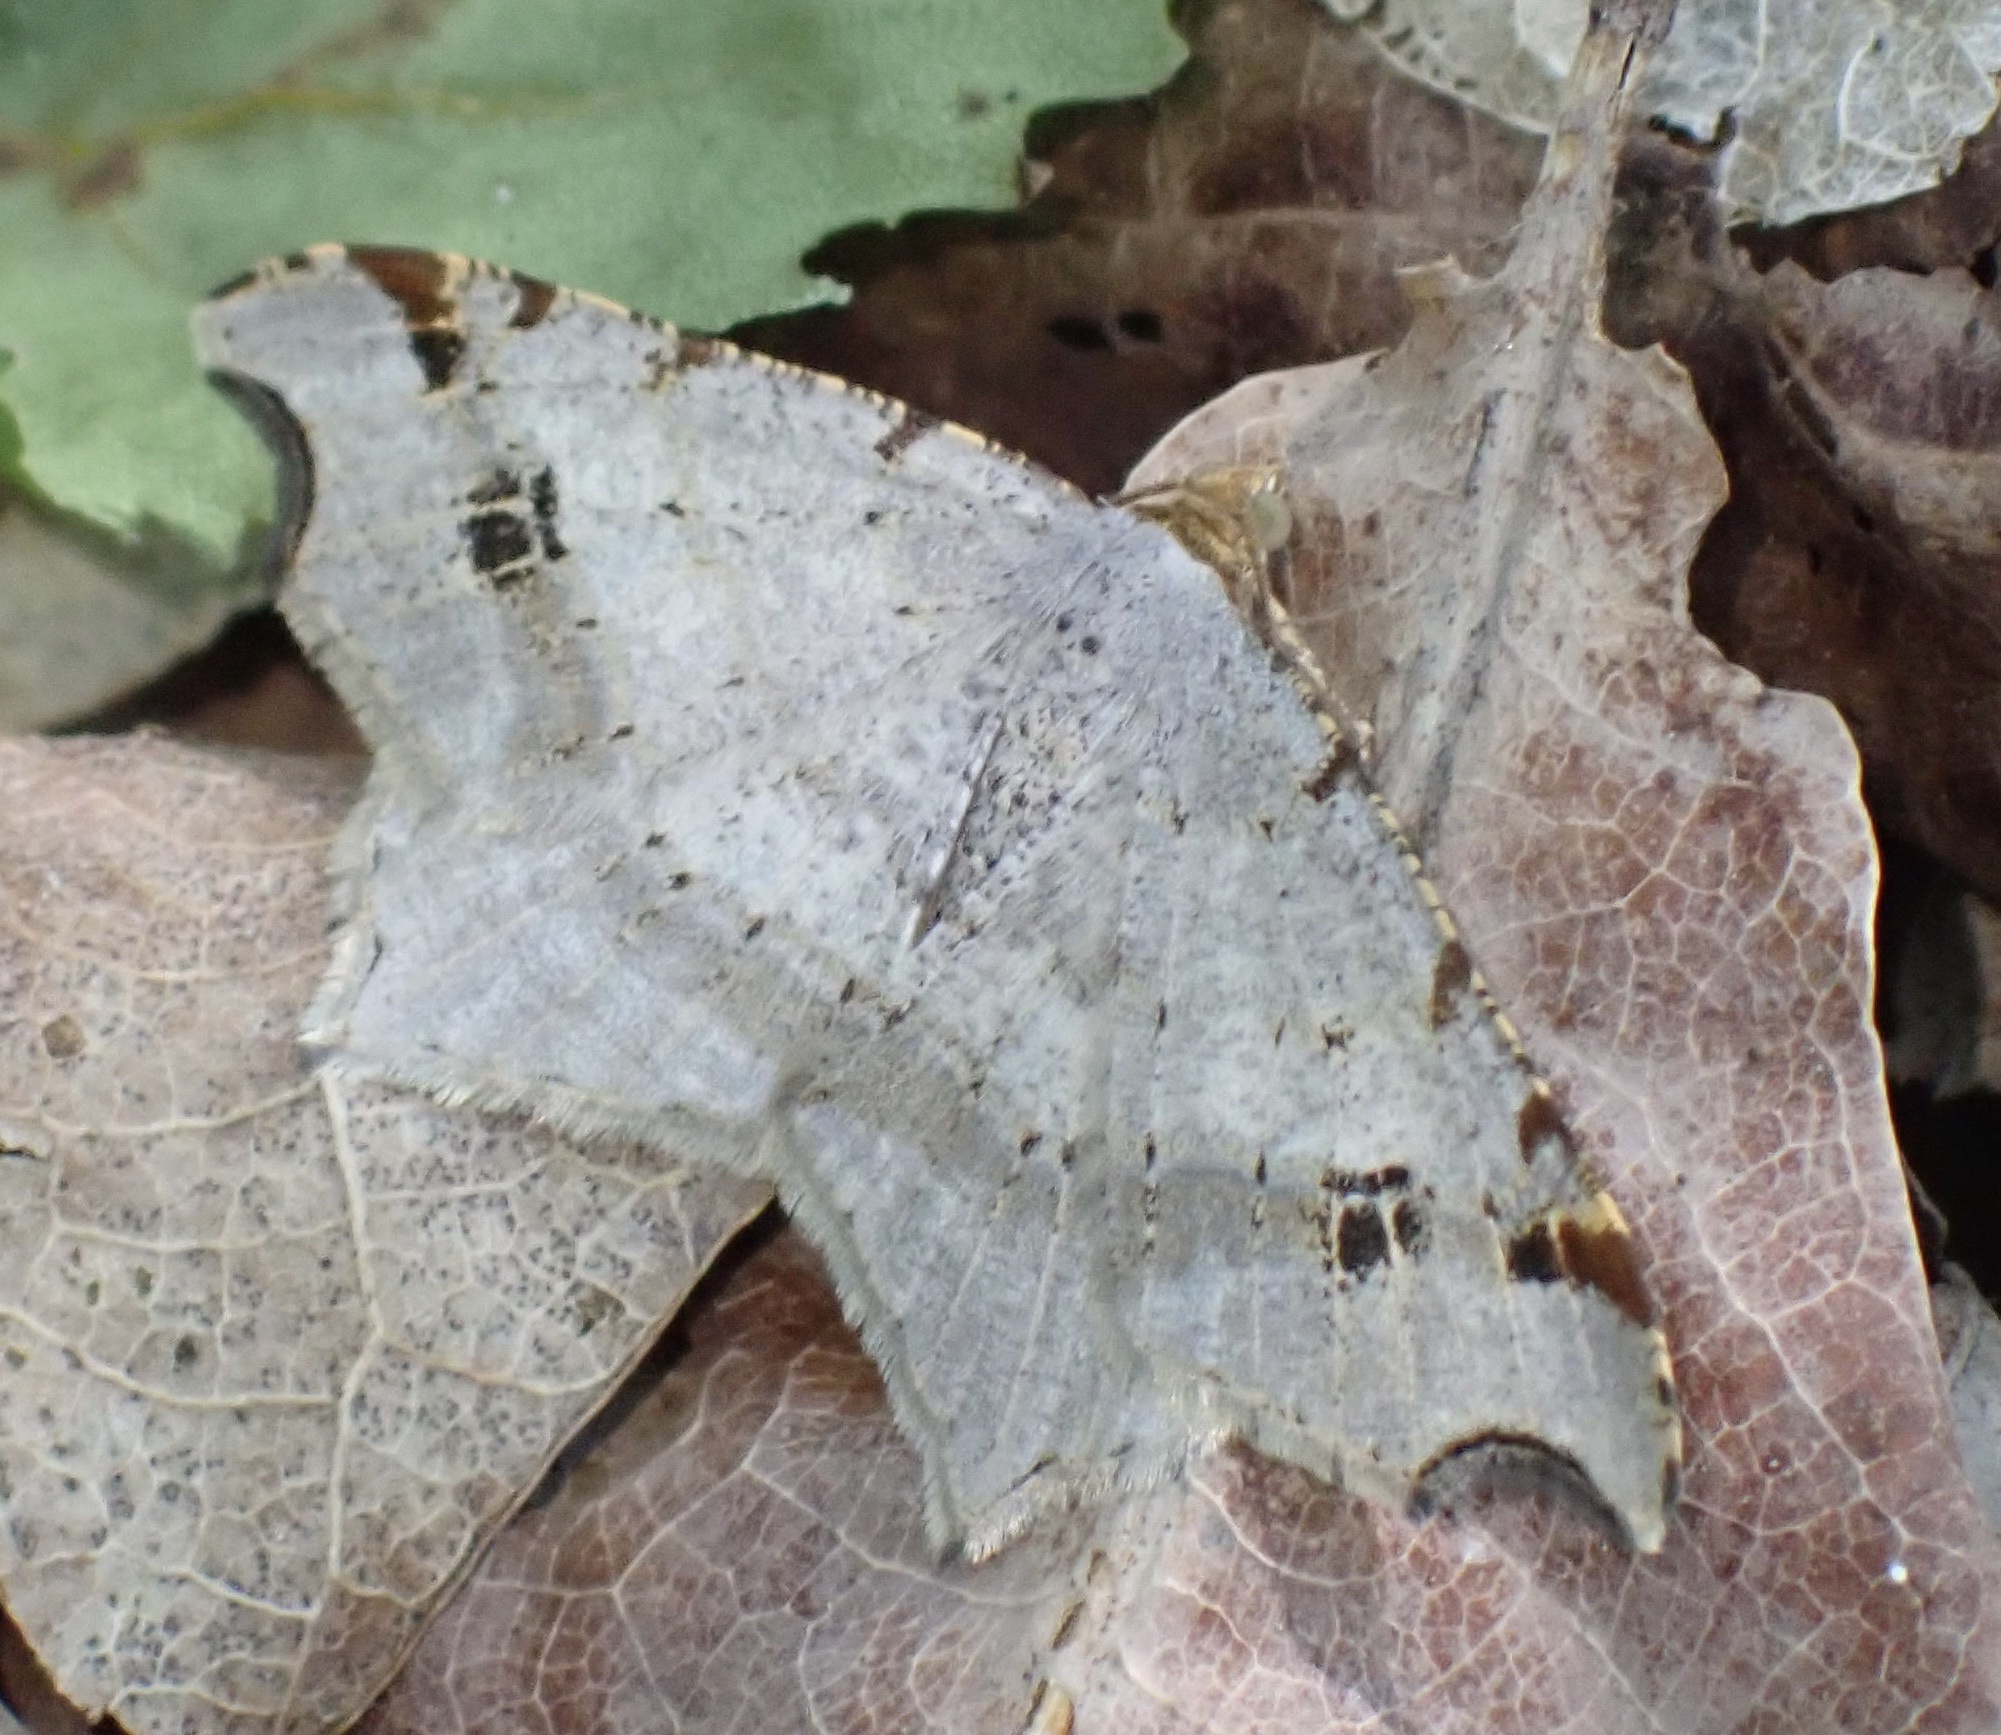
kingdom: Animalia
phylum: Arthropoda
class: Insecta
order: Lepidoptera
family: Geometridae
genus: Macaria
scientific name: Macaria alternata
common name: Sharp-angled peacock
